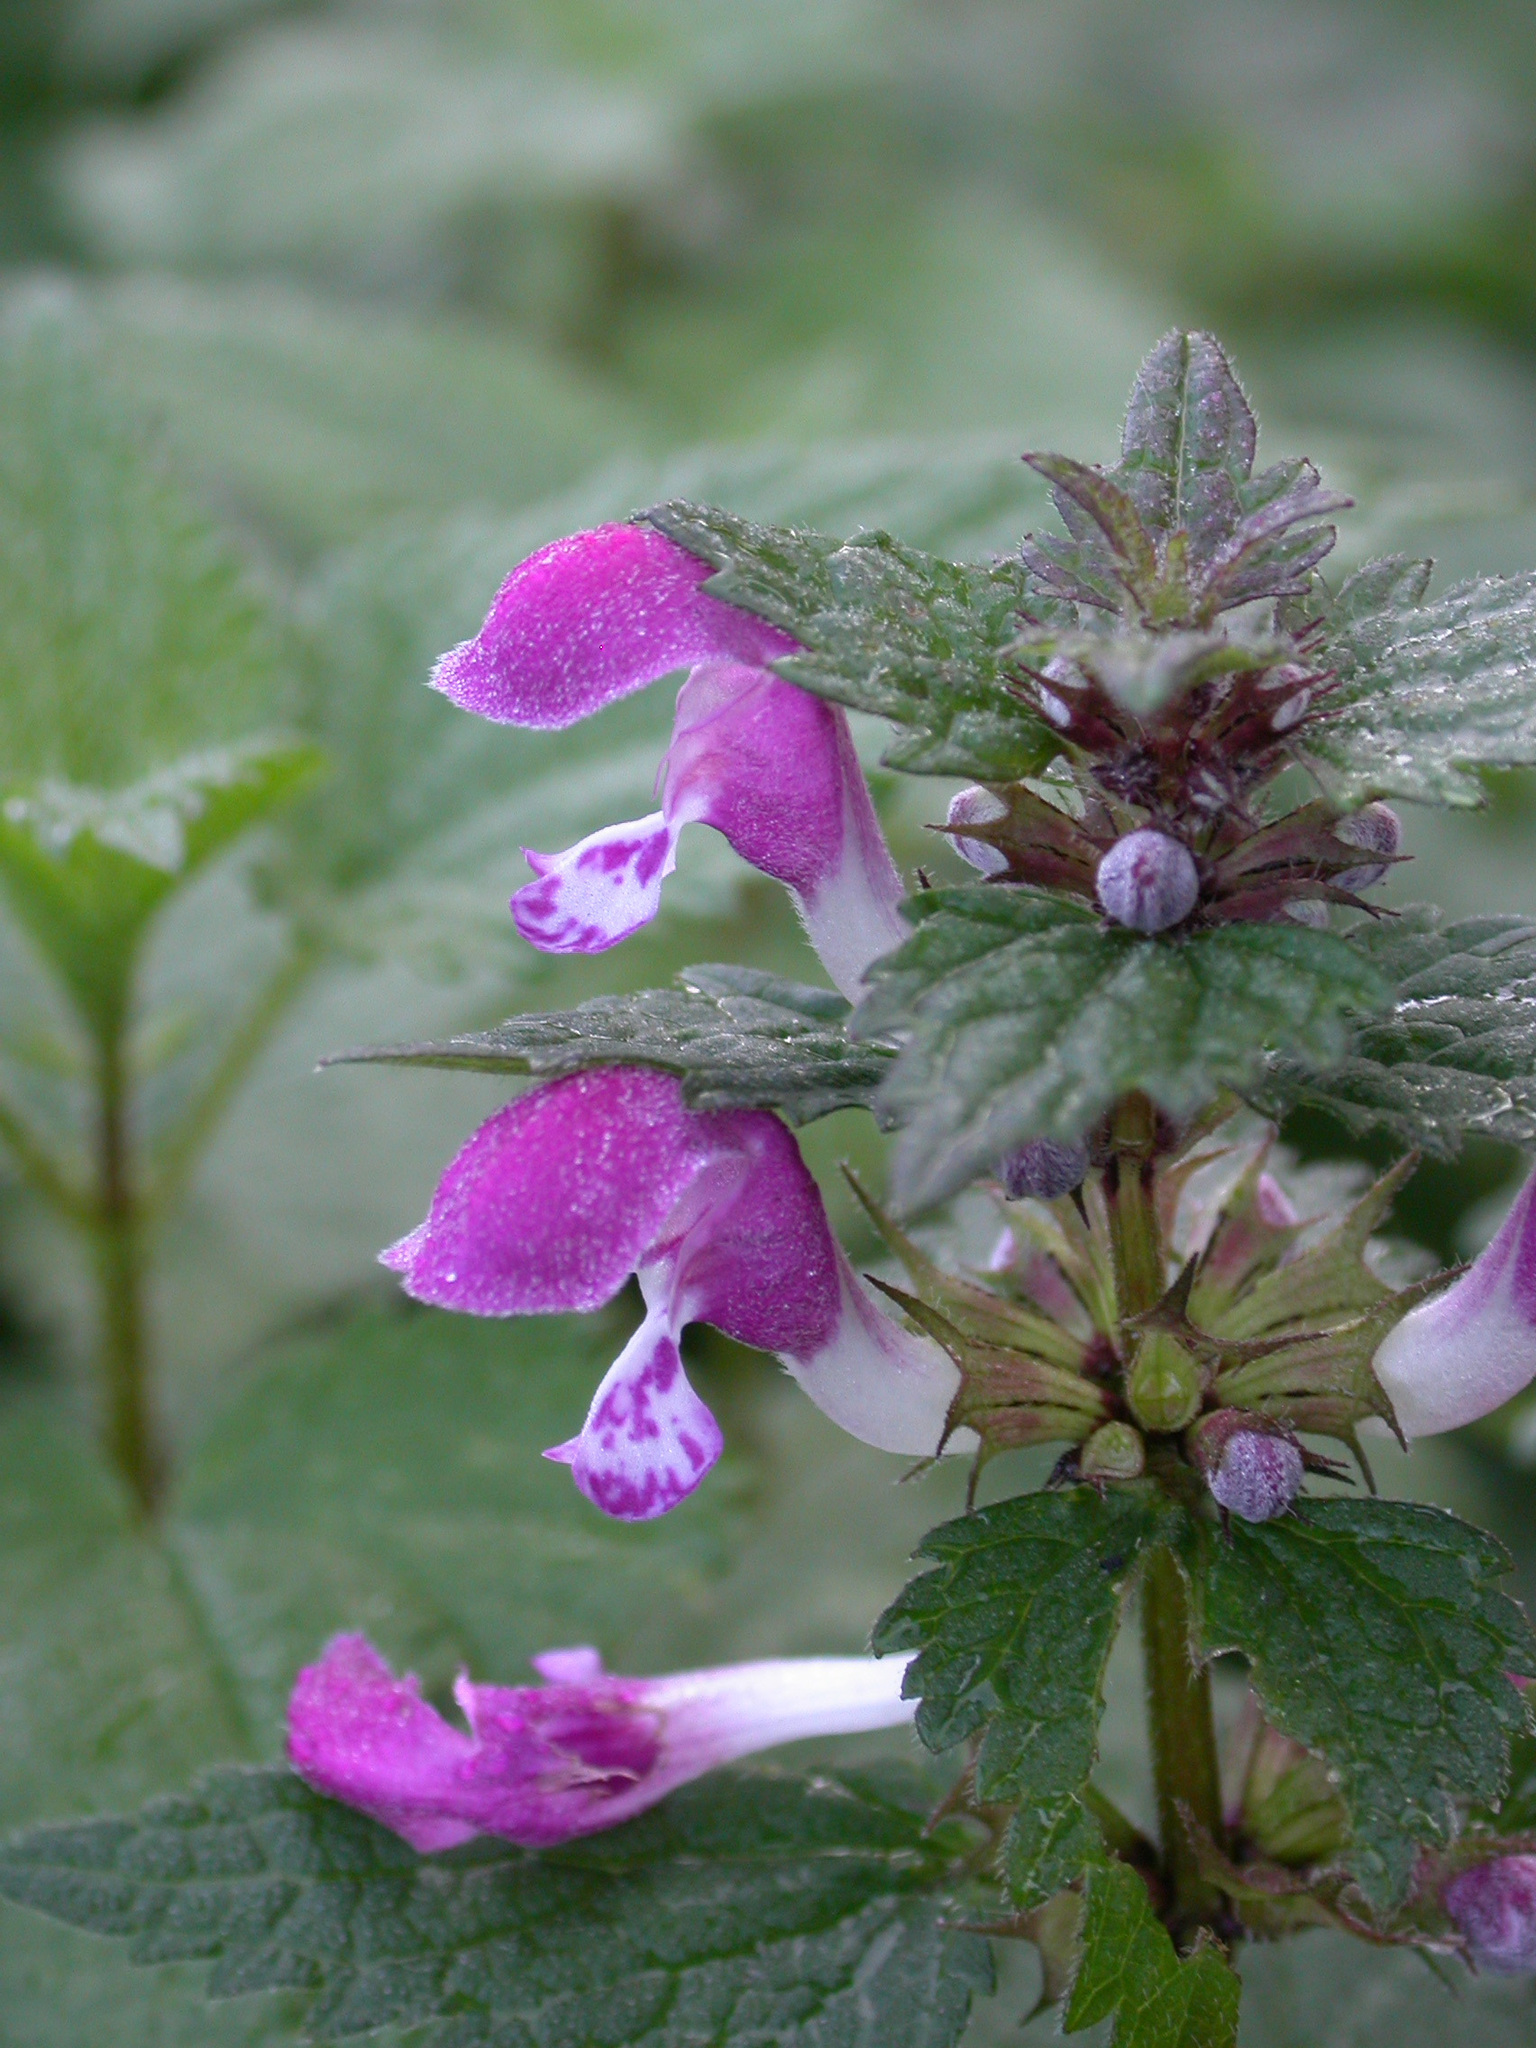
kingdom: Plantae
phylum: Tracheophyta
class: Magnoliopsida
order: Lamiales
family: Lamiaceae
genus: Lamium
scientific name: Lamium maculatum
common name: Spotted dead-nettle
